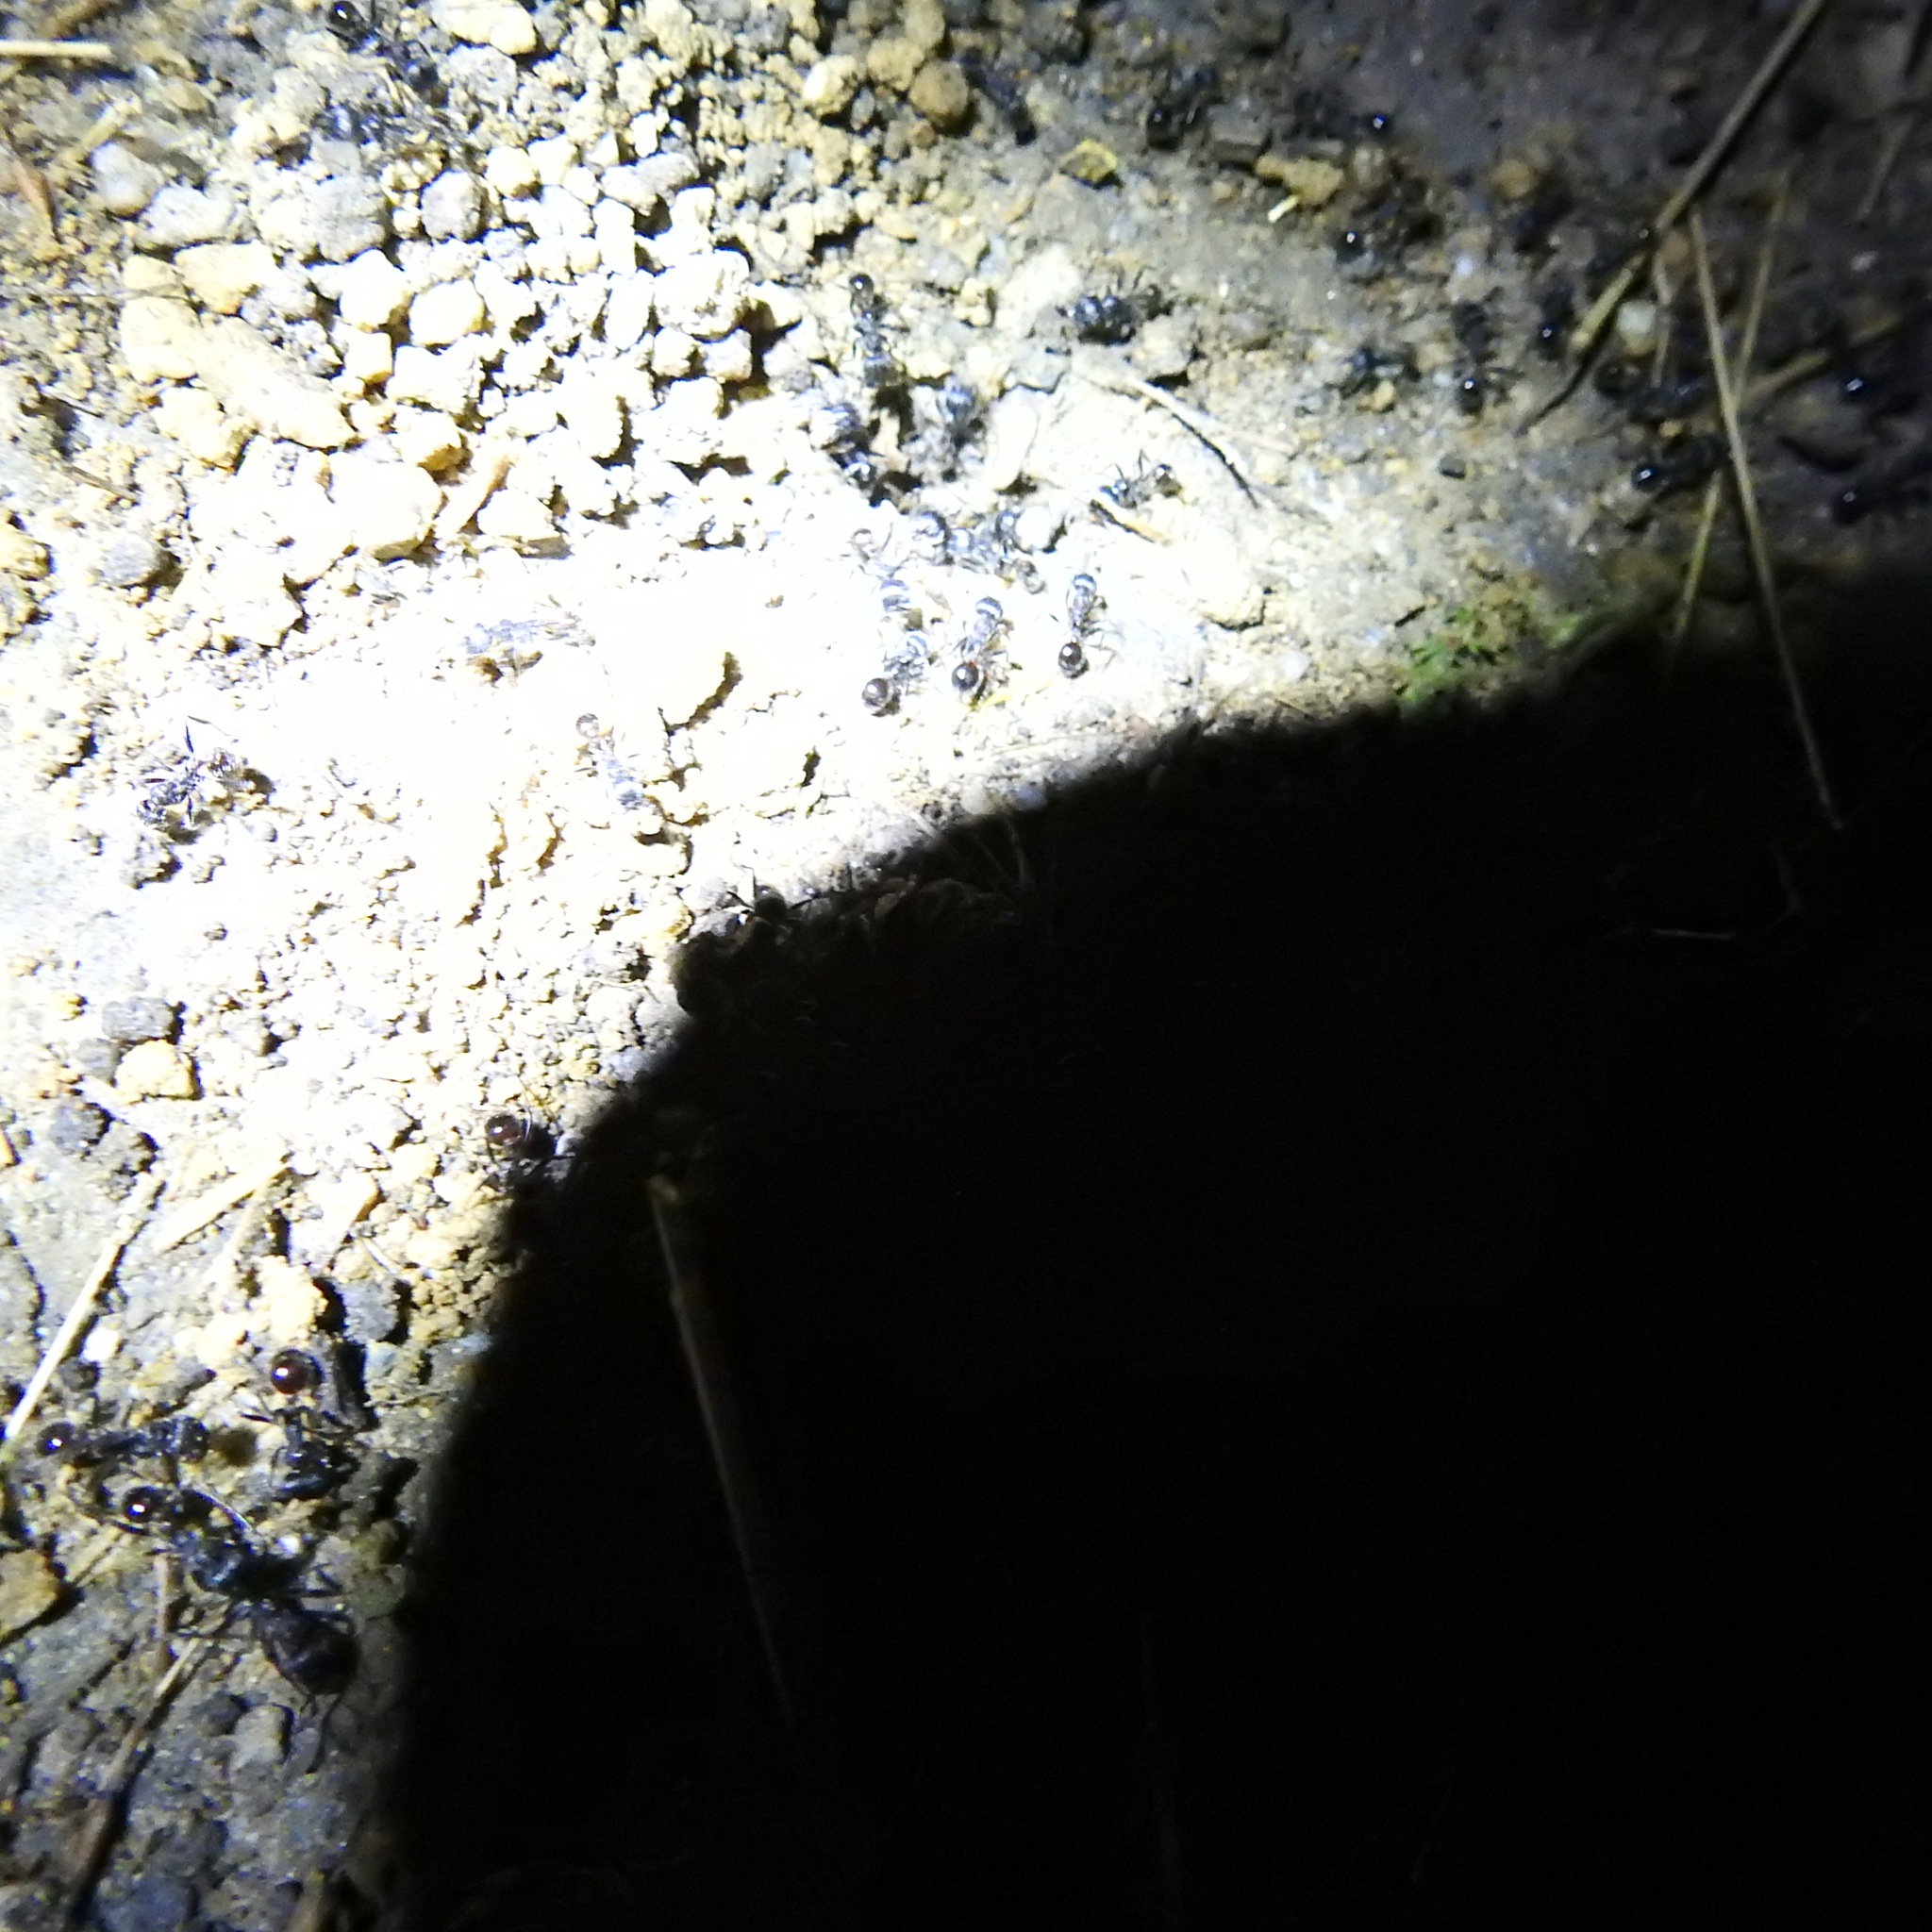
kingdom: Animalia
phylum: Arthropoda
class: Insecta
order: Hymenoptera
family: Formicidae
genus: Veromessor
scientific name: Veromessor andrei
